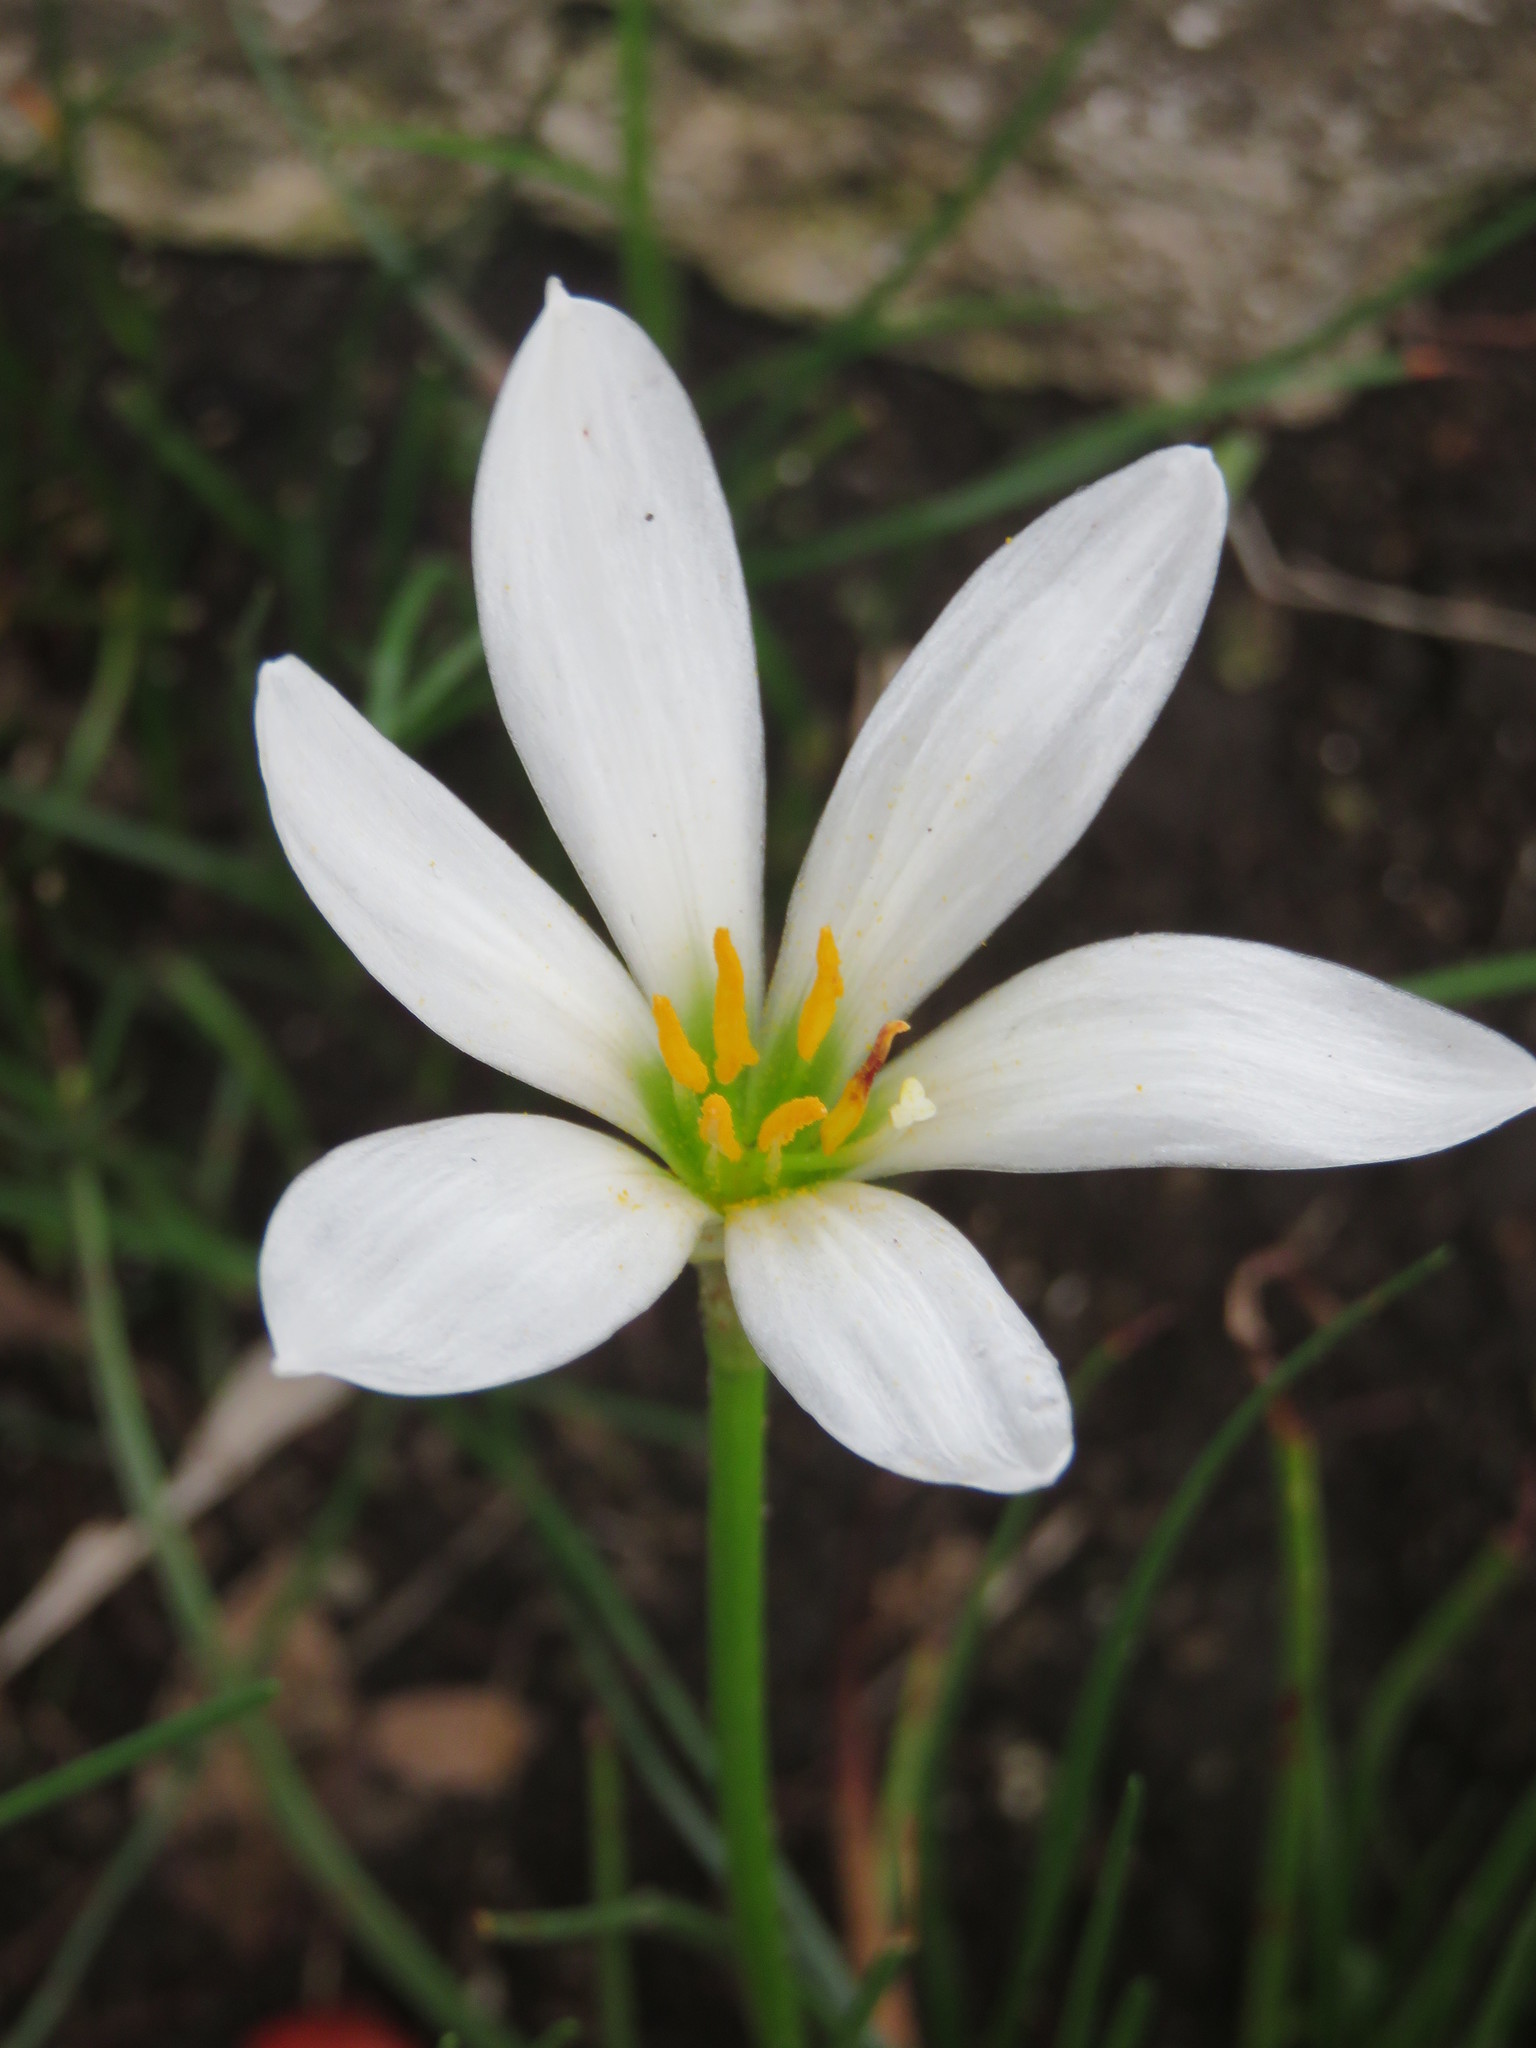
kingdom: Plantae
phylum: Tracheophyta
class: Liliopsida
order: Asparagales
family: Amaryllidaceae
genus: Zephyranthes
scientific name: Zephyranthes candida
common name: Autumn zephyrlily
